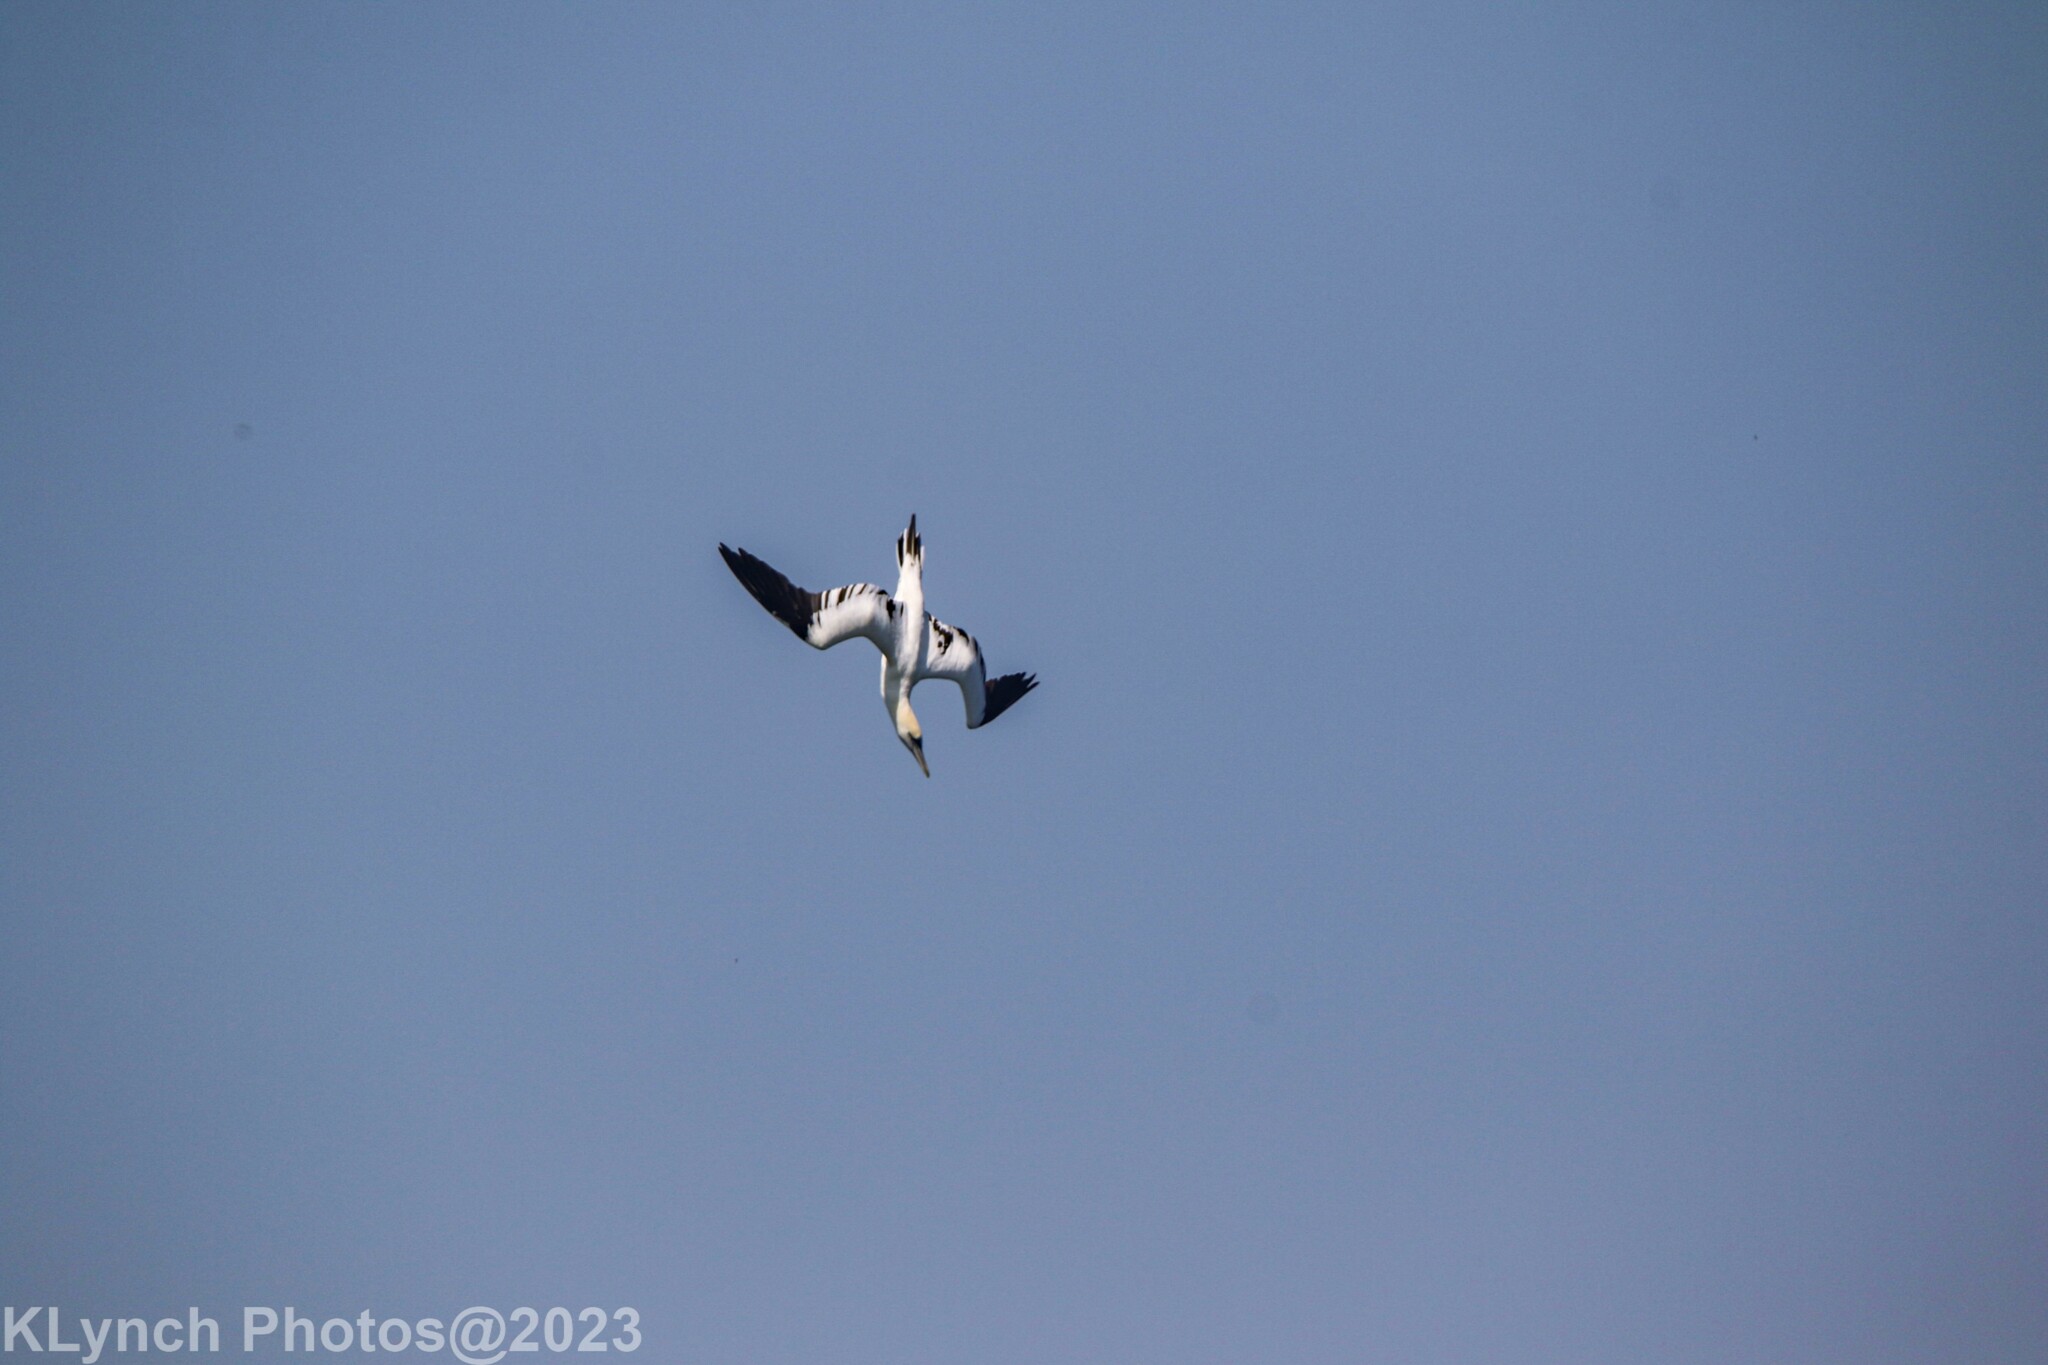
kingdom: Animalia
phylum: Chordata
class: Aves
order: Suliformes
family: Sulidae
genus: Morus
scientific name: Morus bassanus
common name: Northern gannet
